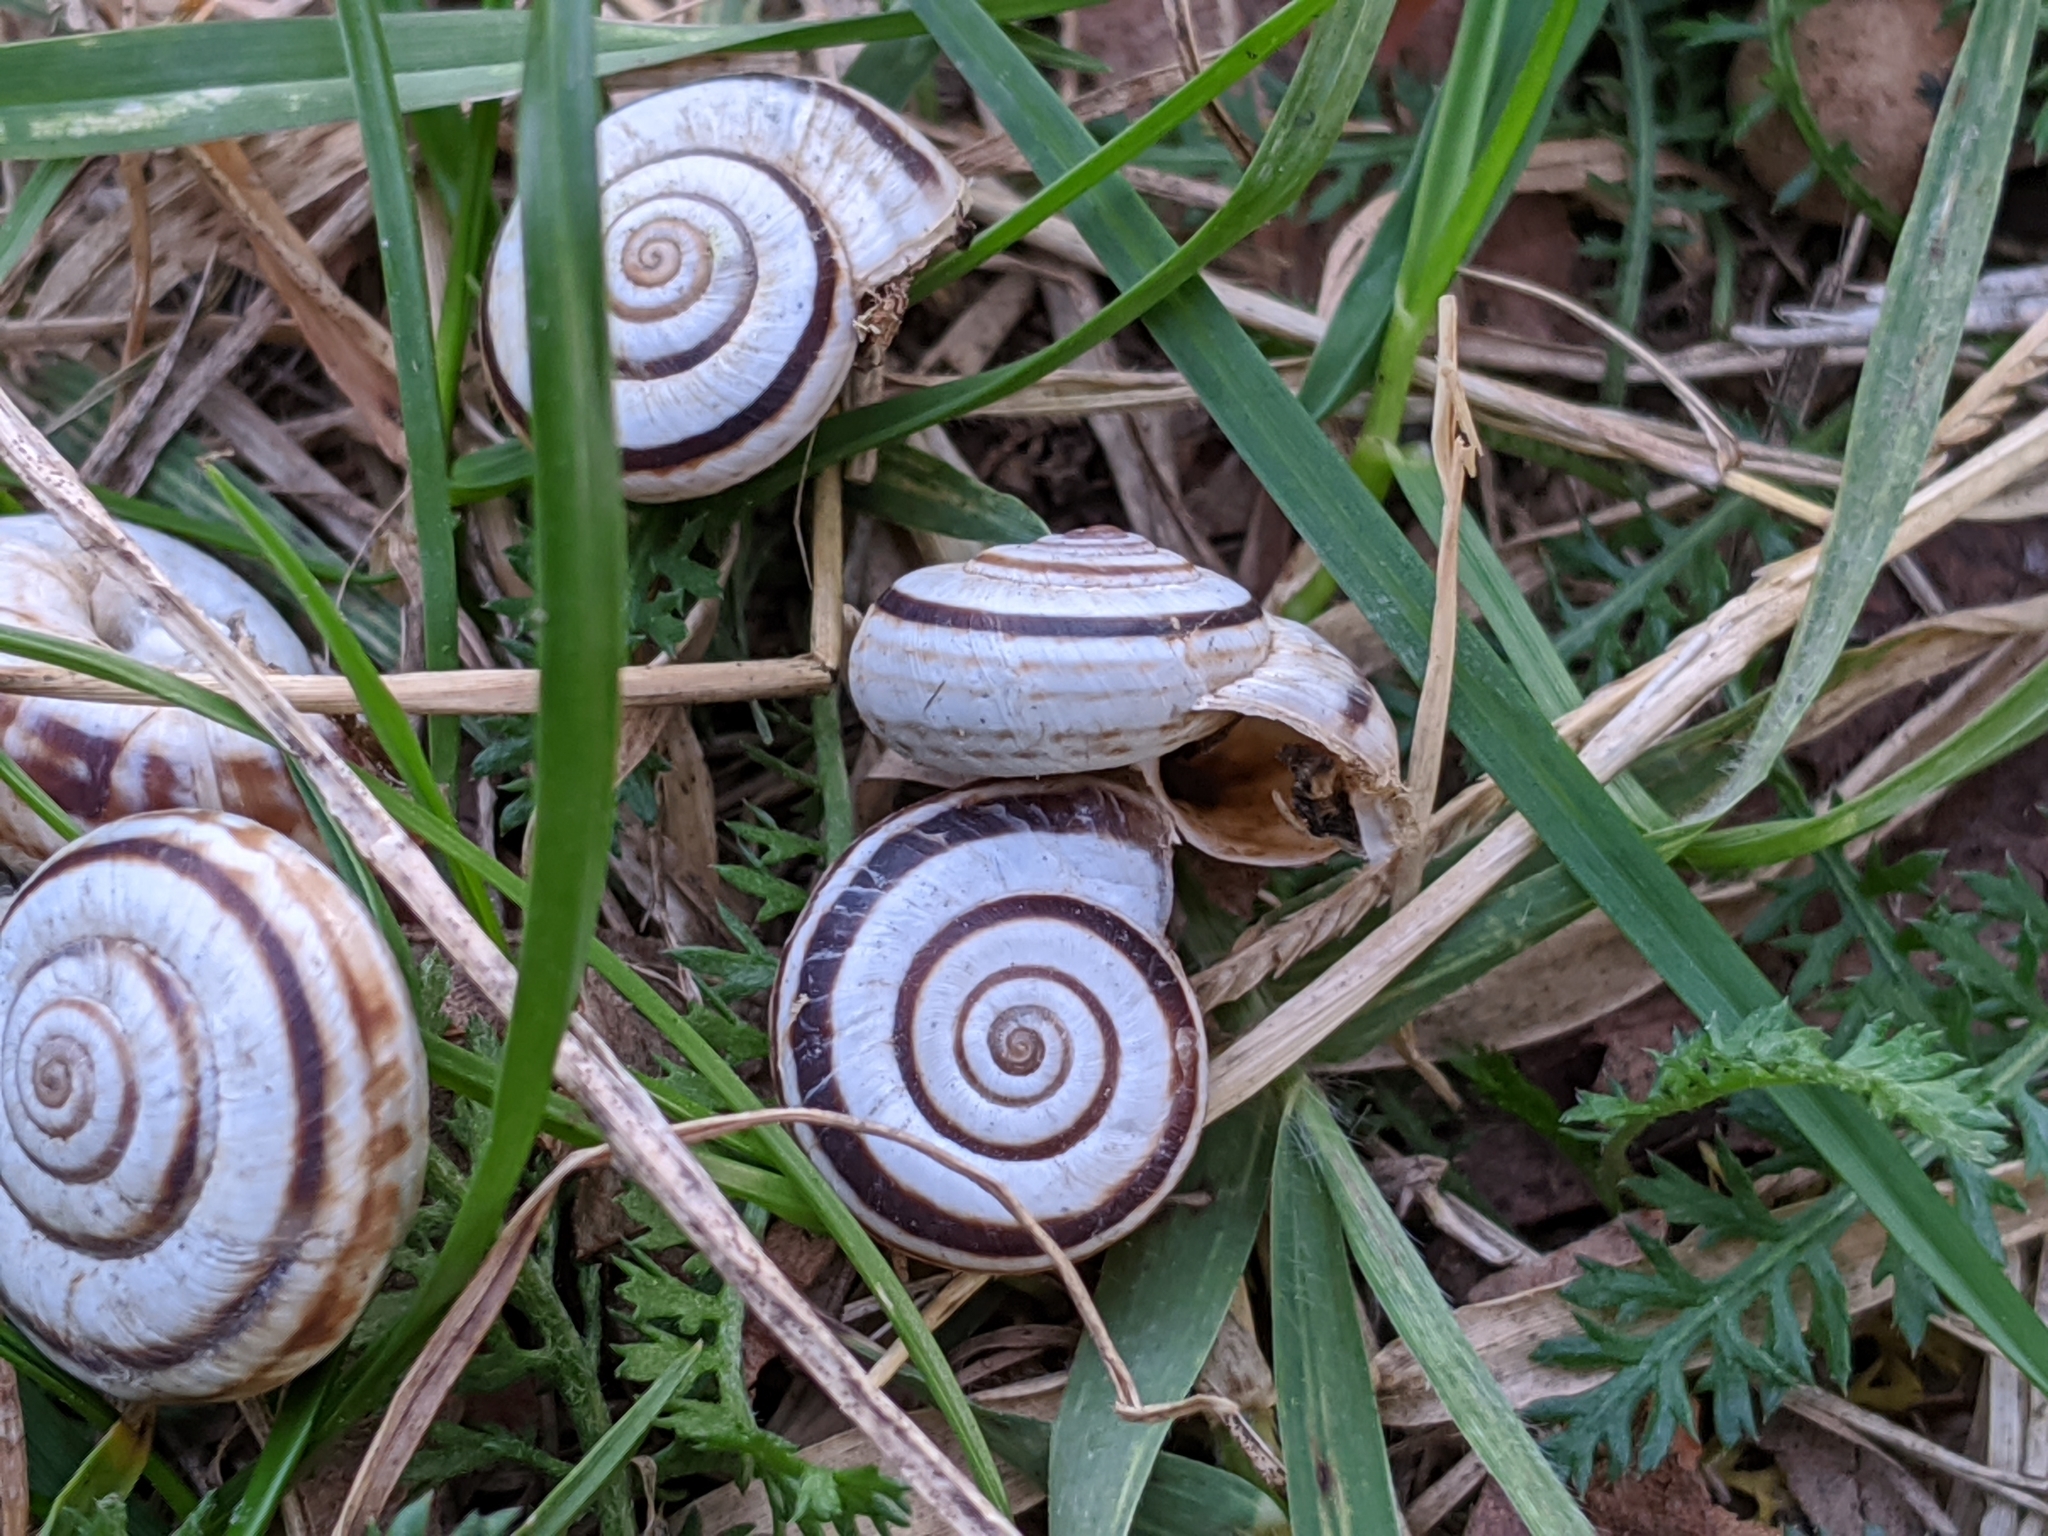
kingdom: Animalia
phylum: Mollusca
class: Gastropoda
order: Stylommatophora
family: Geomitridae
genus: Xerolenta
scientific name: Xerolenta obvia
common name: White heath snail
